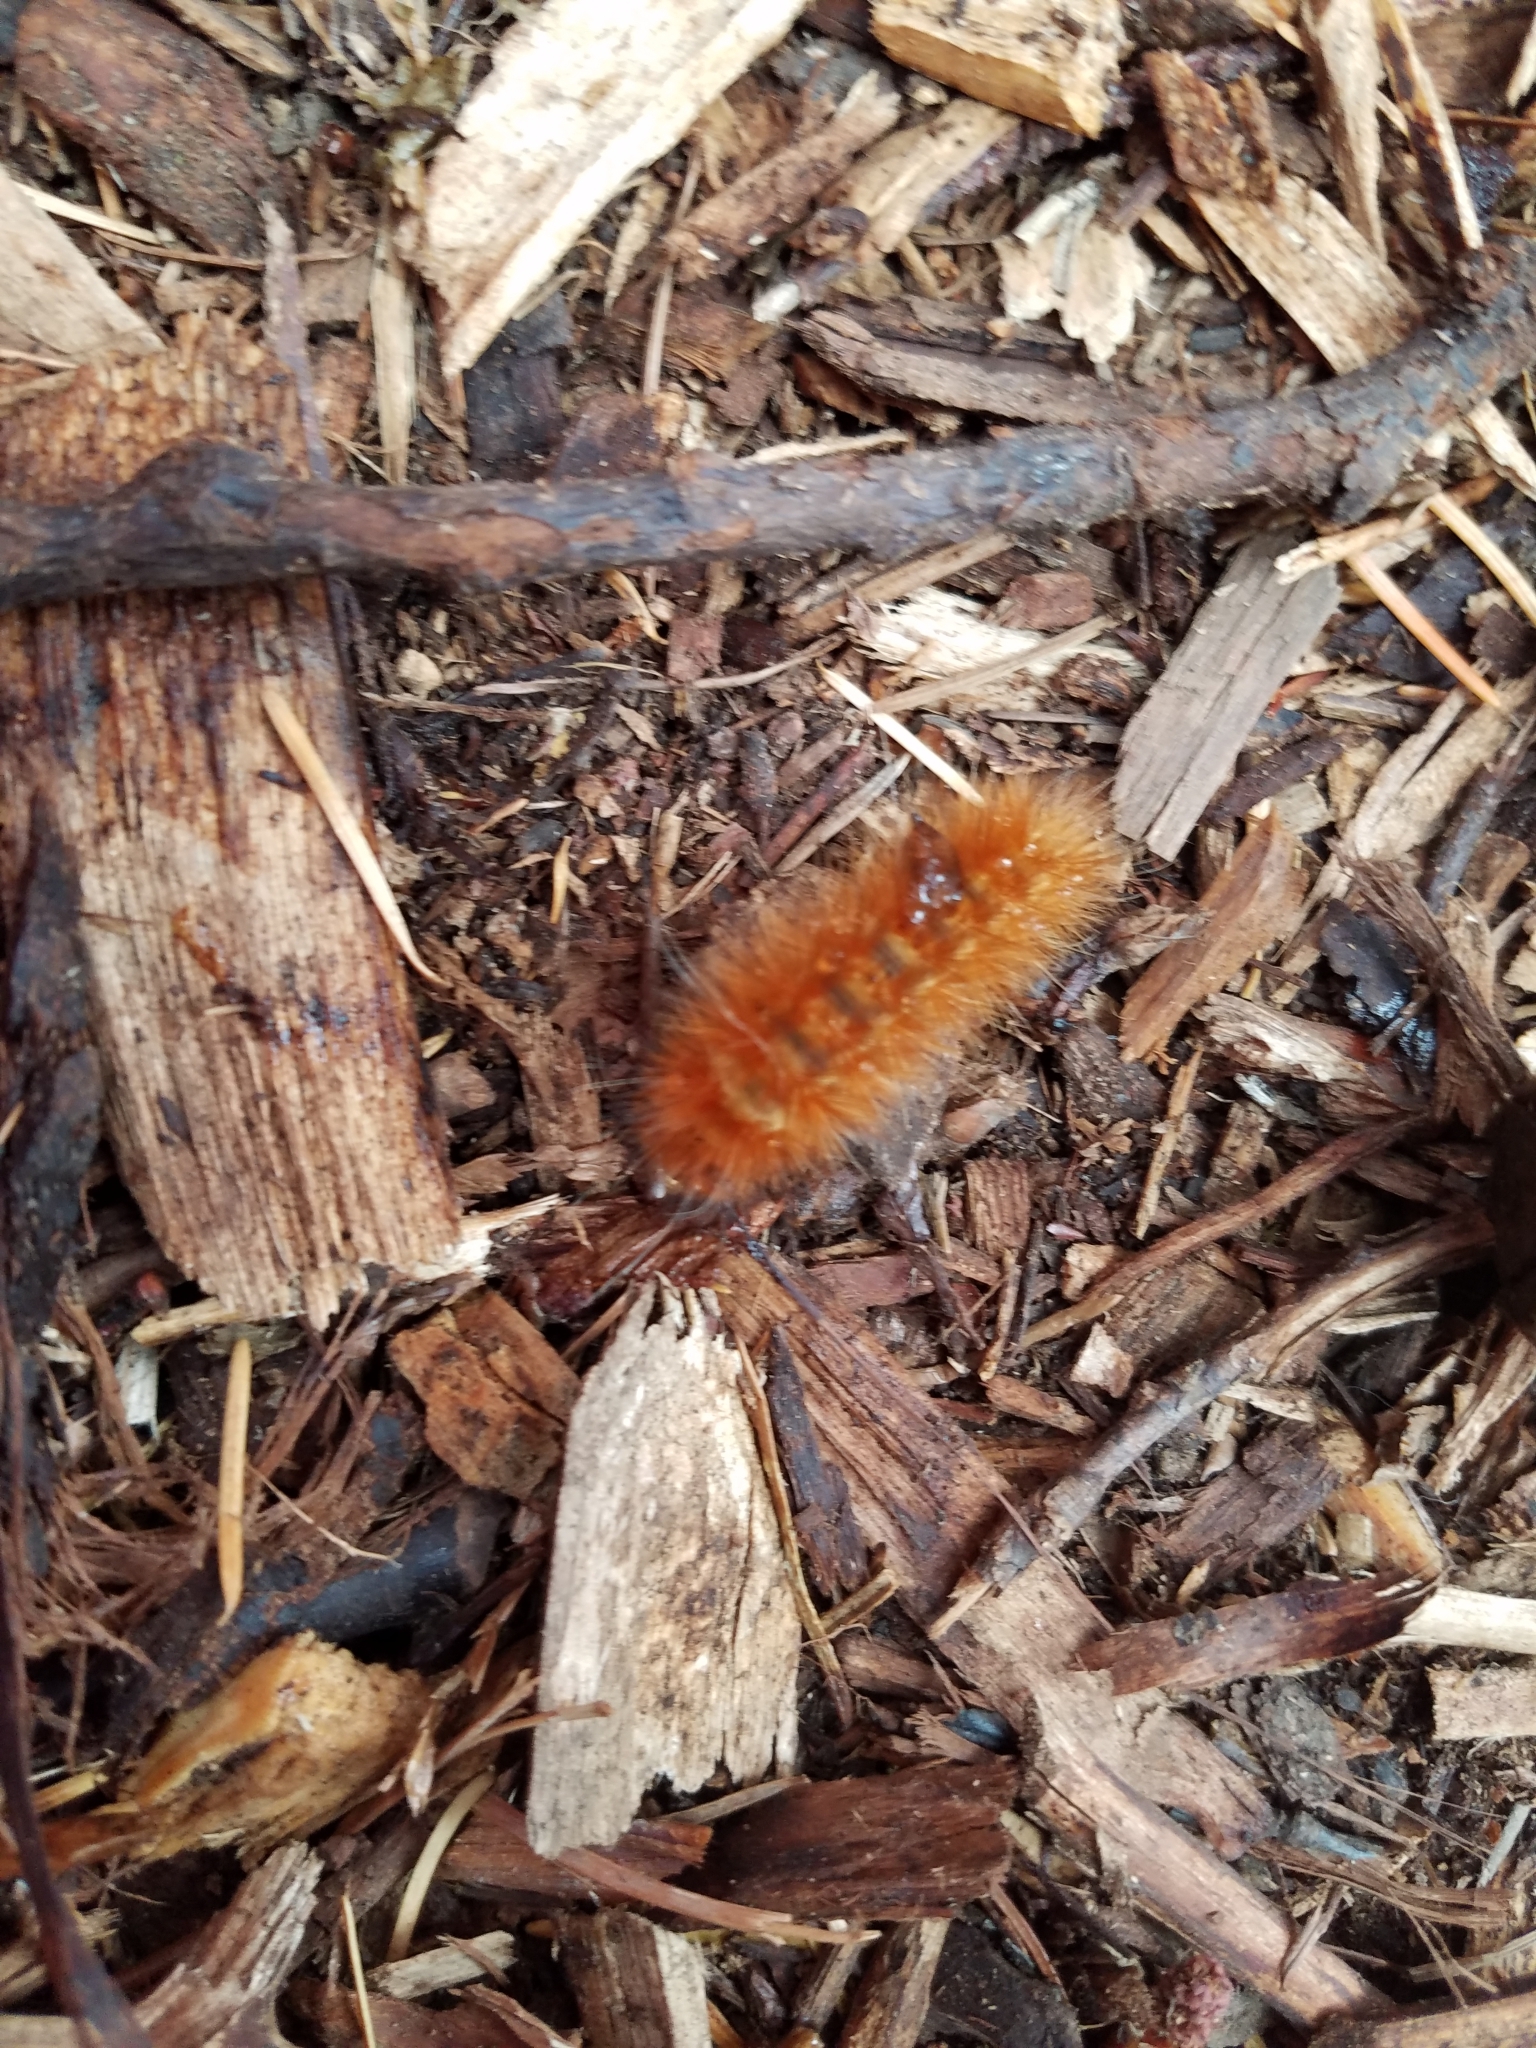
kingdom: Animalia
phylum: Arthropoda
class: Insecta
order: Lepidoptera
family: Erebidae
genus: Spilosoma
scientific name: Spilosoma virginica
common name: Virginia tiger moth
